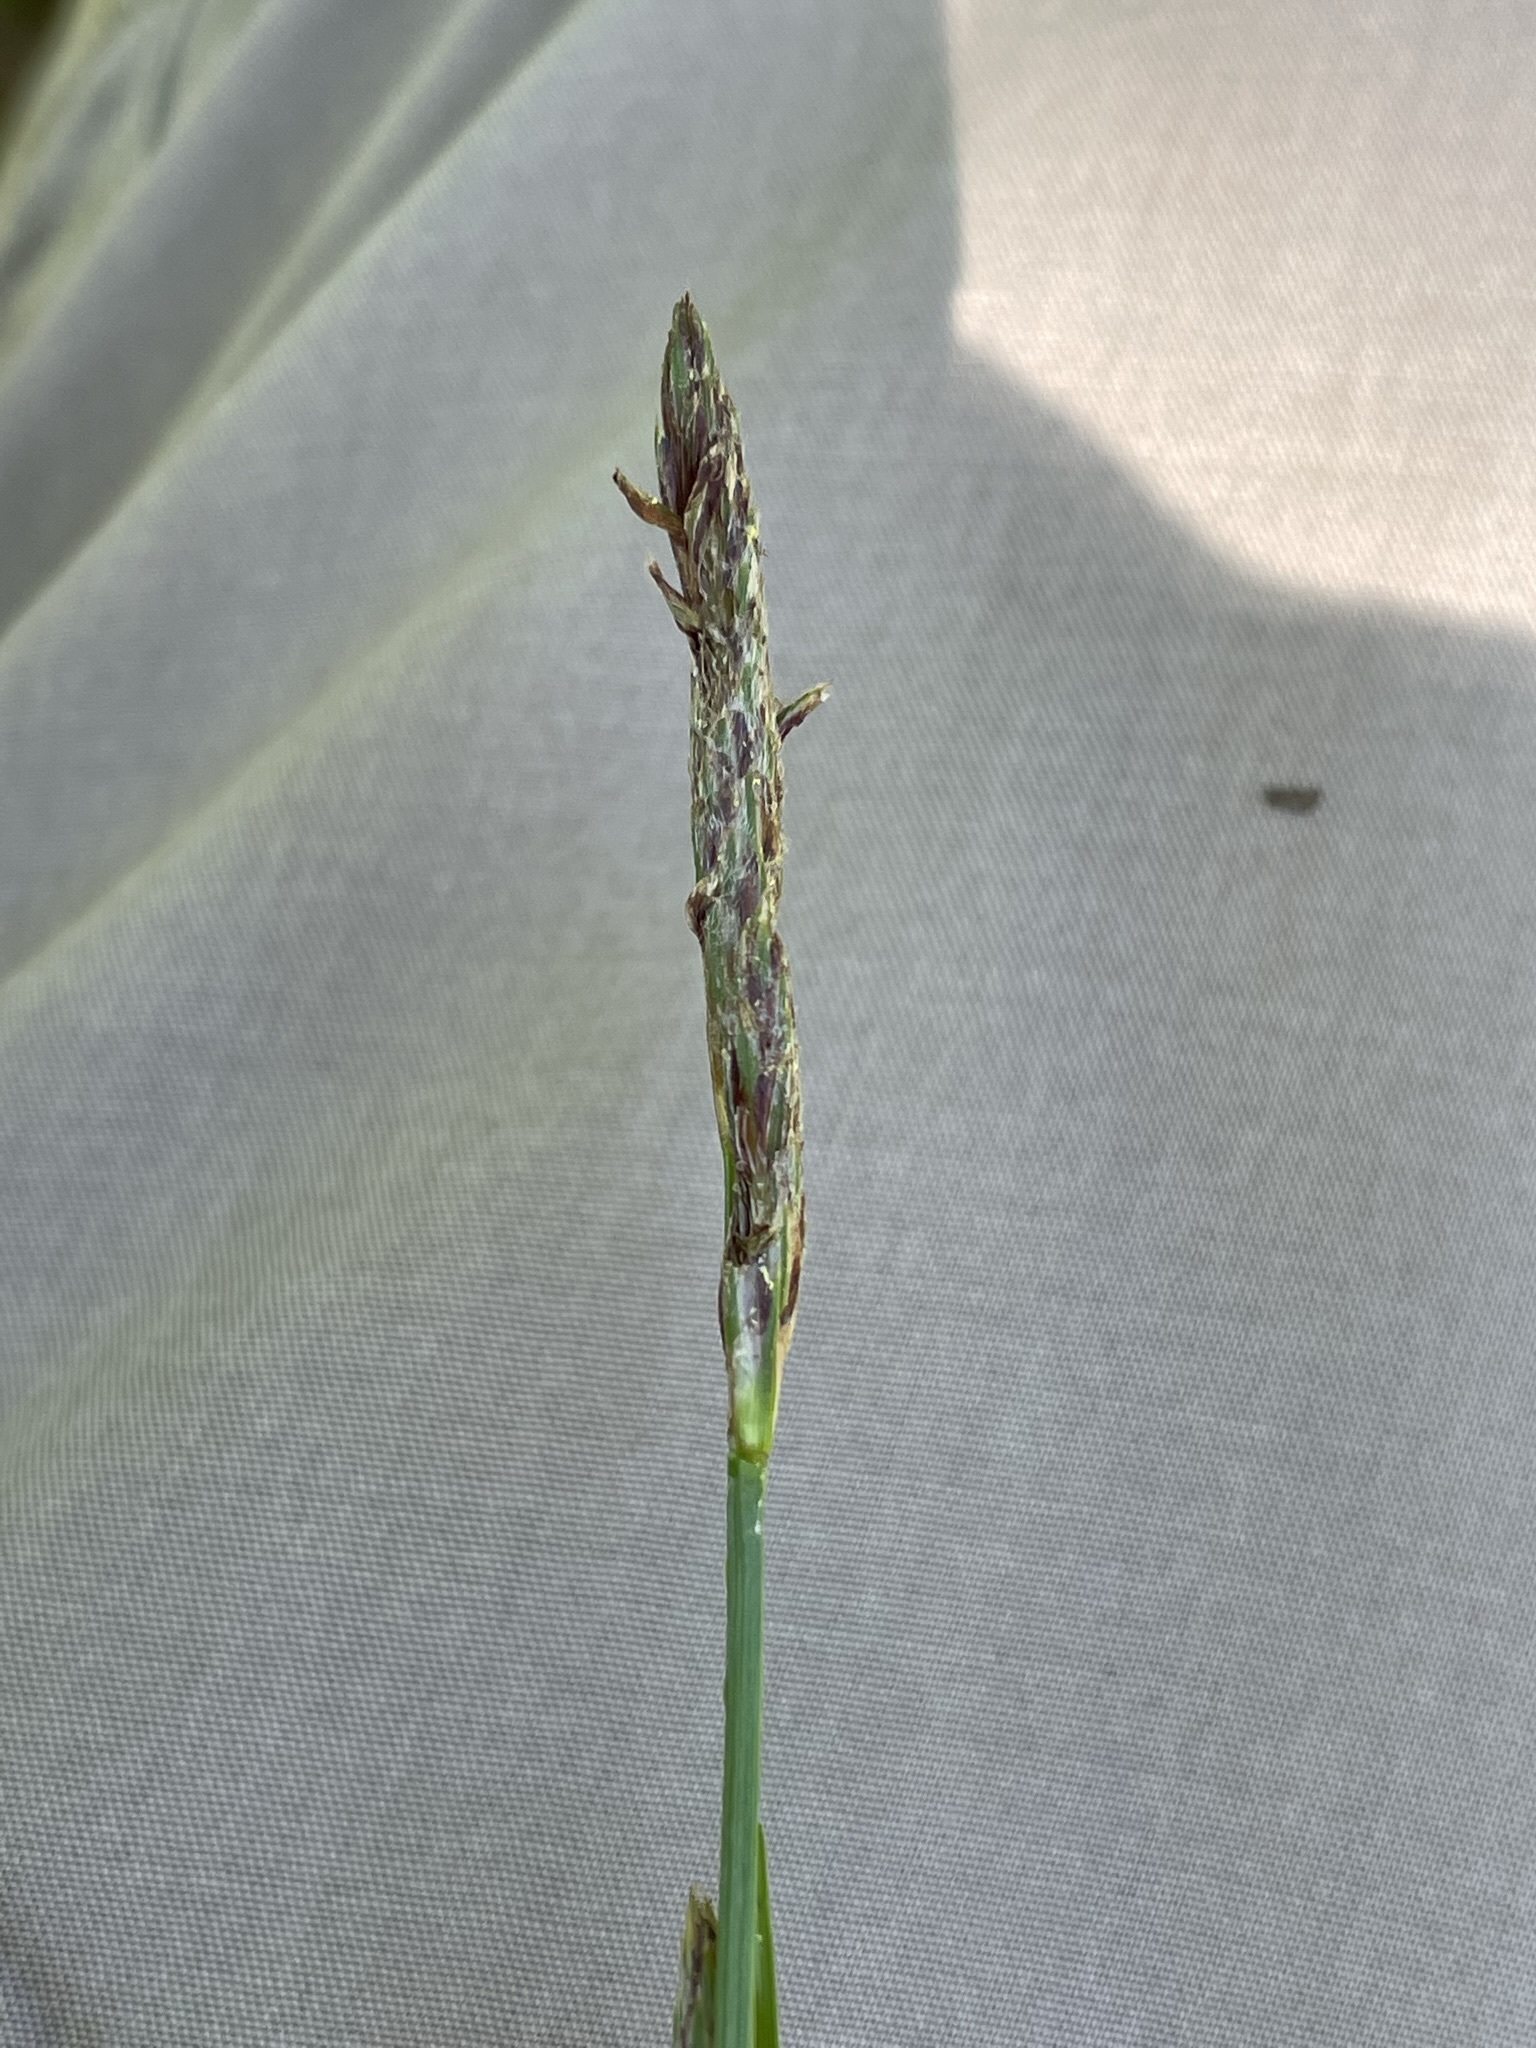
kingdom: Plantae
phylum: Tracheophyta
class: Liliopsida
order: Poales
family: Cyperaceae
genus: Carex
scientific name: Carex hirta
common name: Hairy sedge
